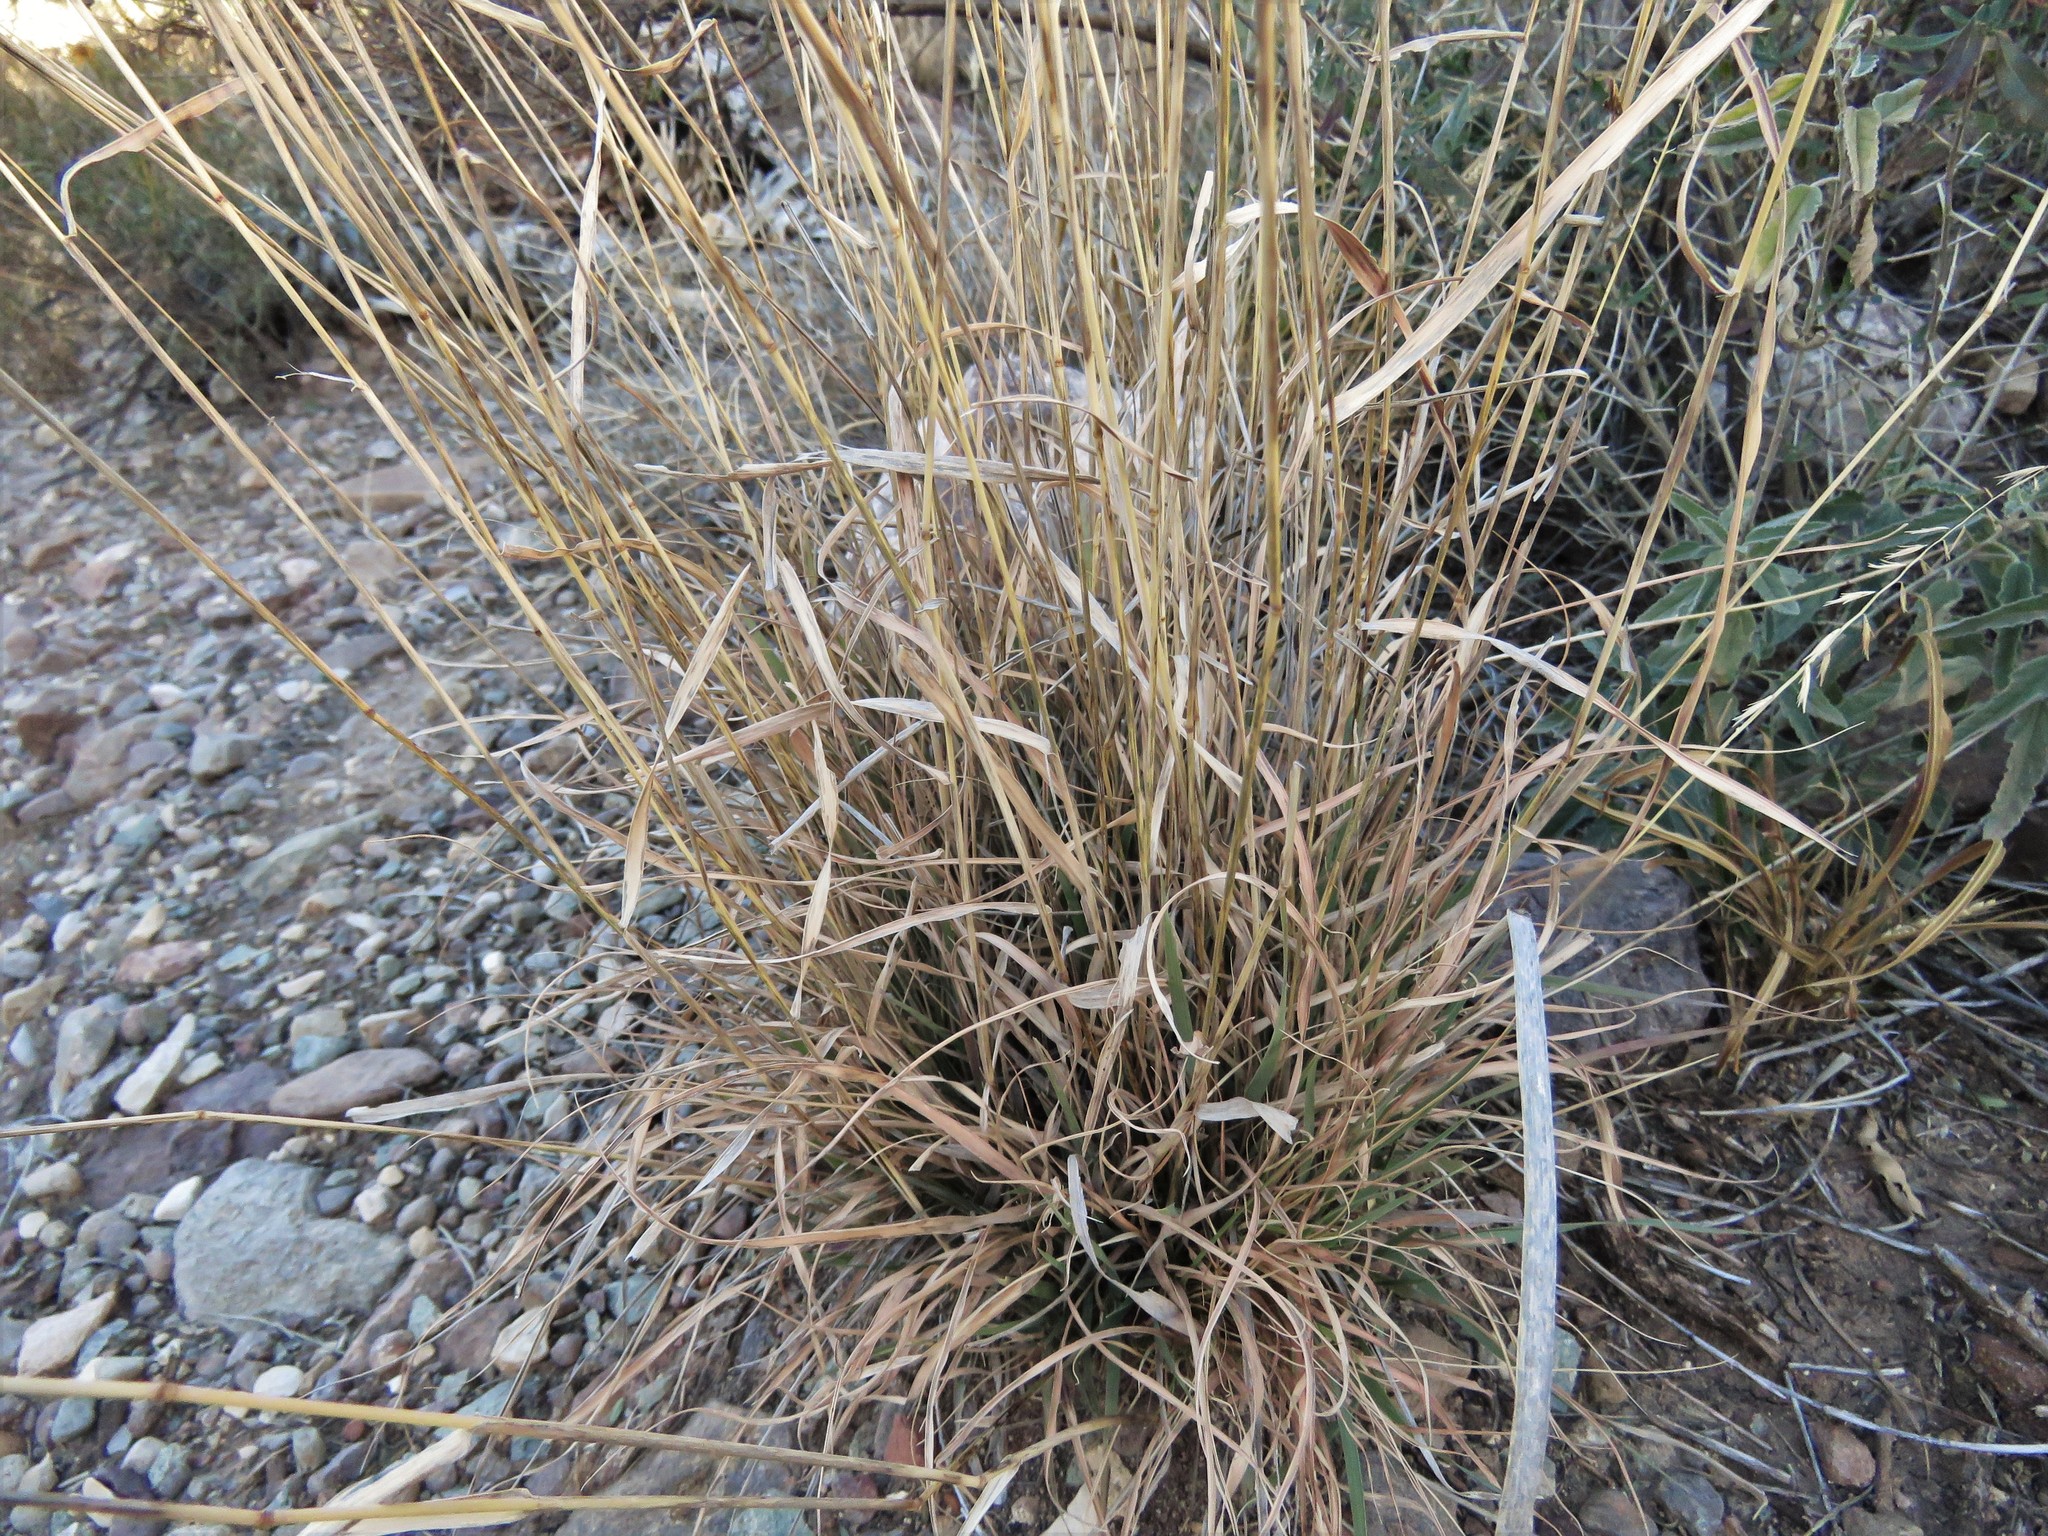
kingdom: Plantae
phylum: Tracheophyta
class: Liliopsida
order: Poales
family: Poaceae
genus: Bouteloua
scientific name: Bouteloua curtipendula
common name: Side-oats grama
